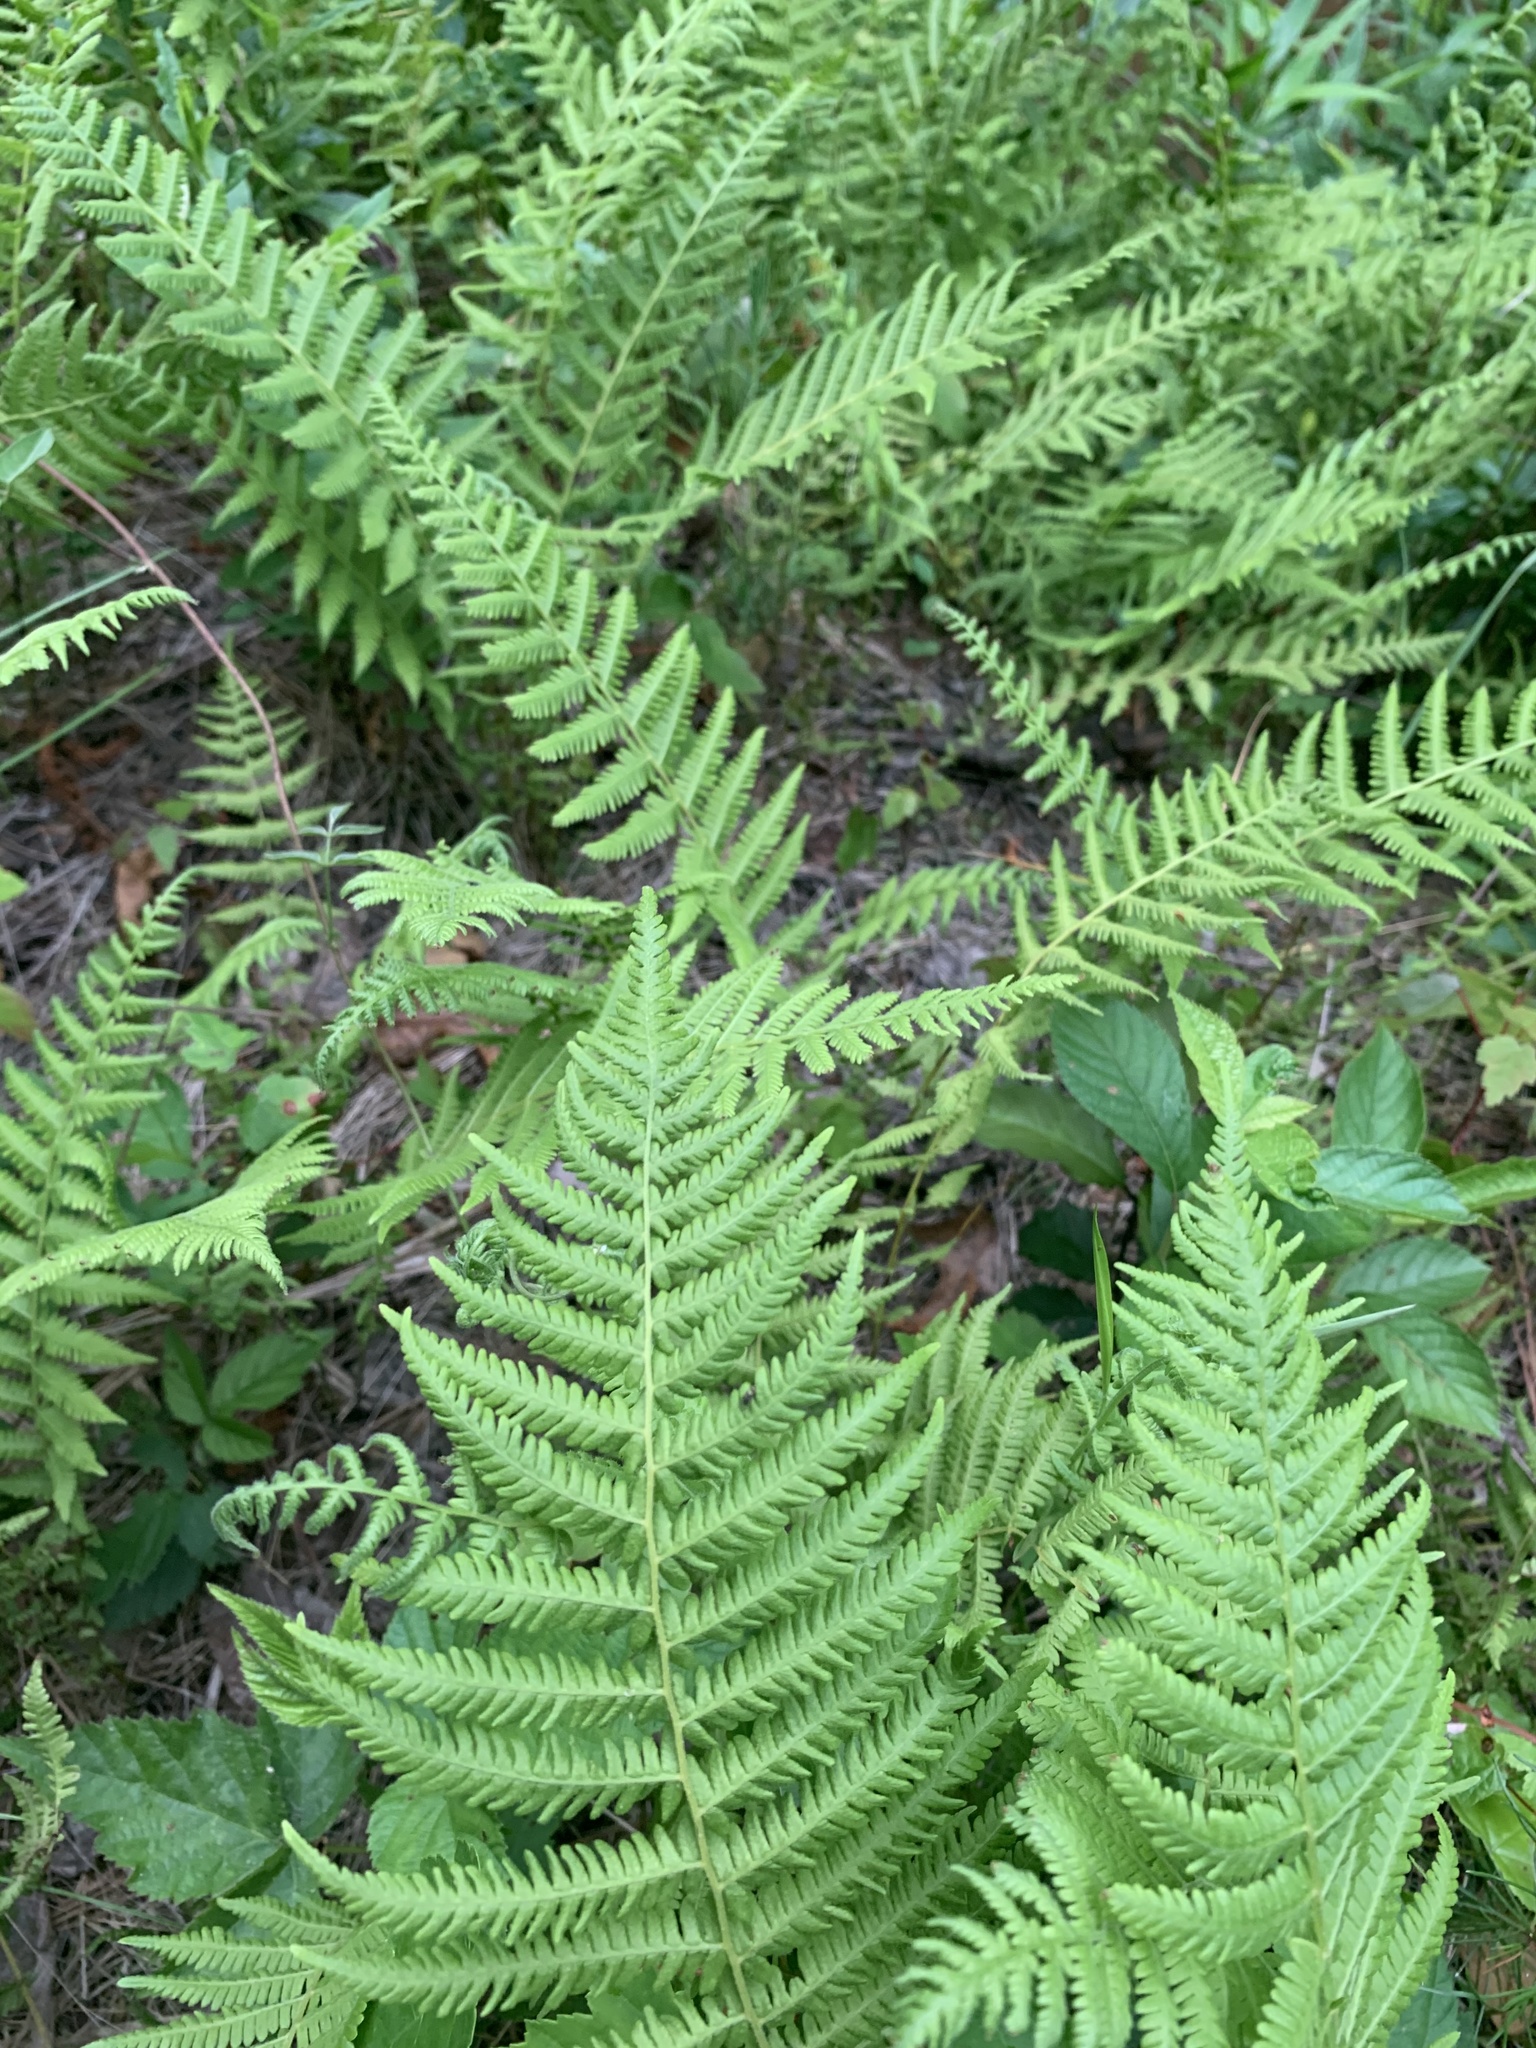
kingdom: Plantae
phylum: Tracheophyta
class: Polypodiopsida
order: Polypodiales
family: Thelypteridaceae
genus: Amauropelta
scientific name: Amauropelta noveboracensis
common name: New york fern
